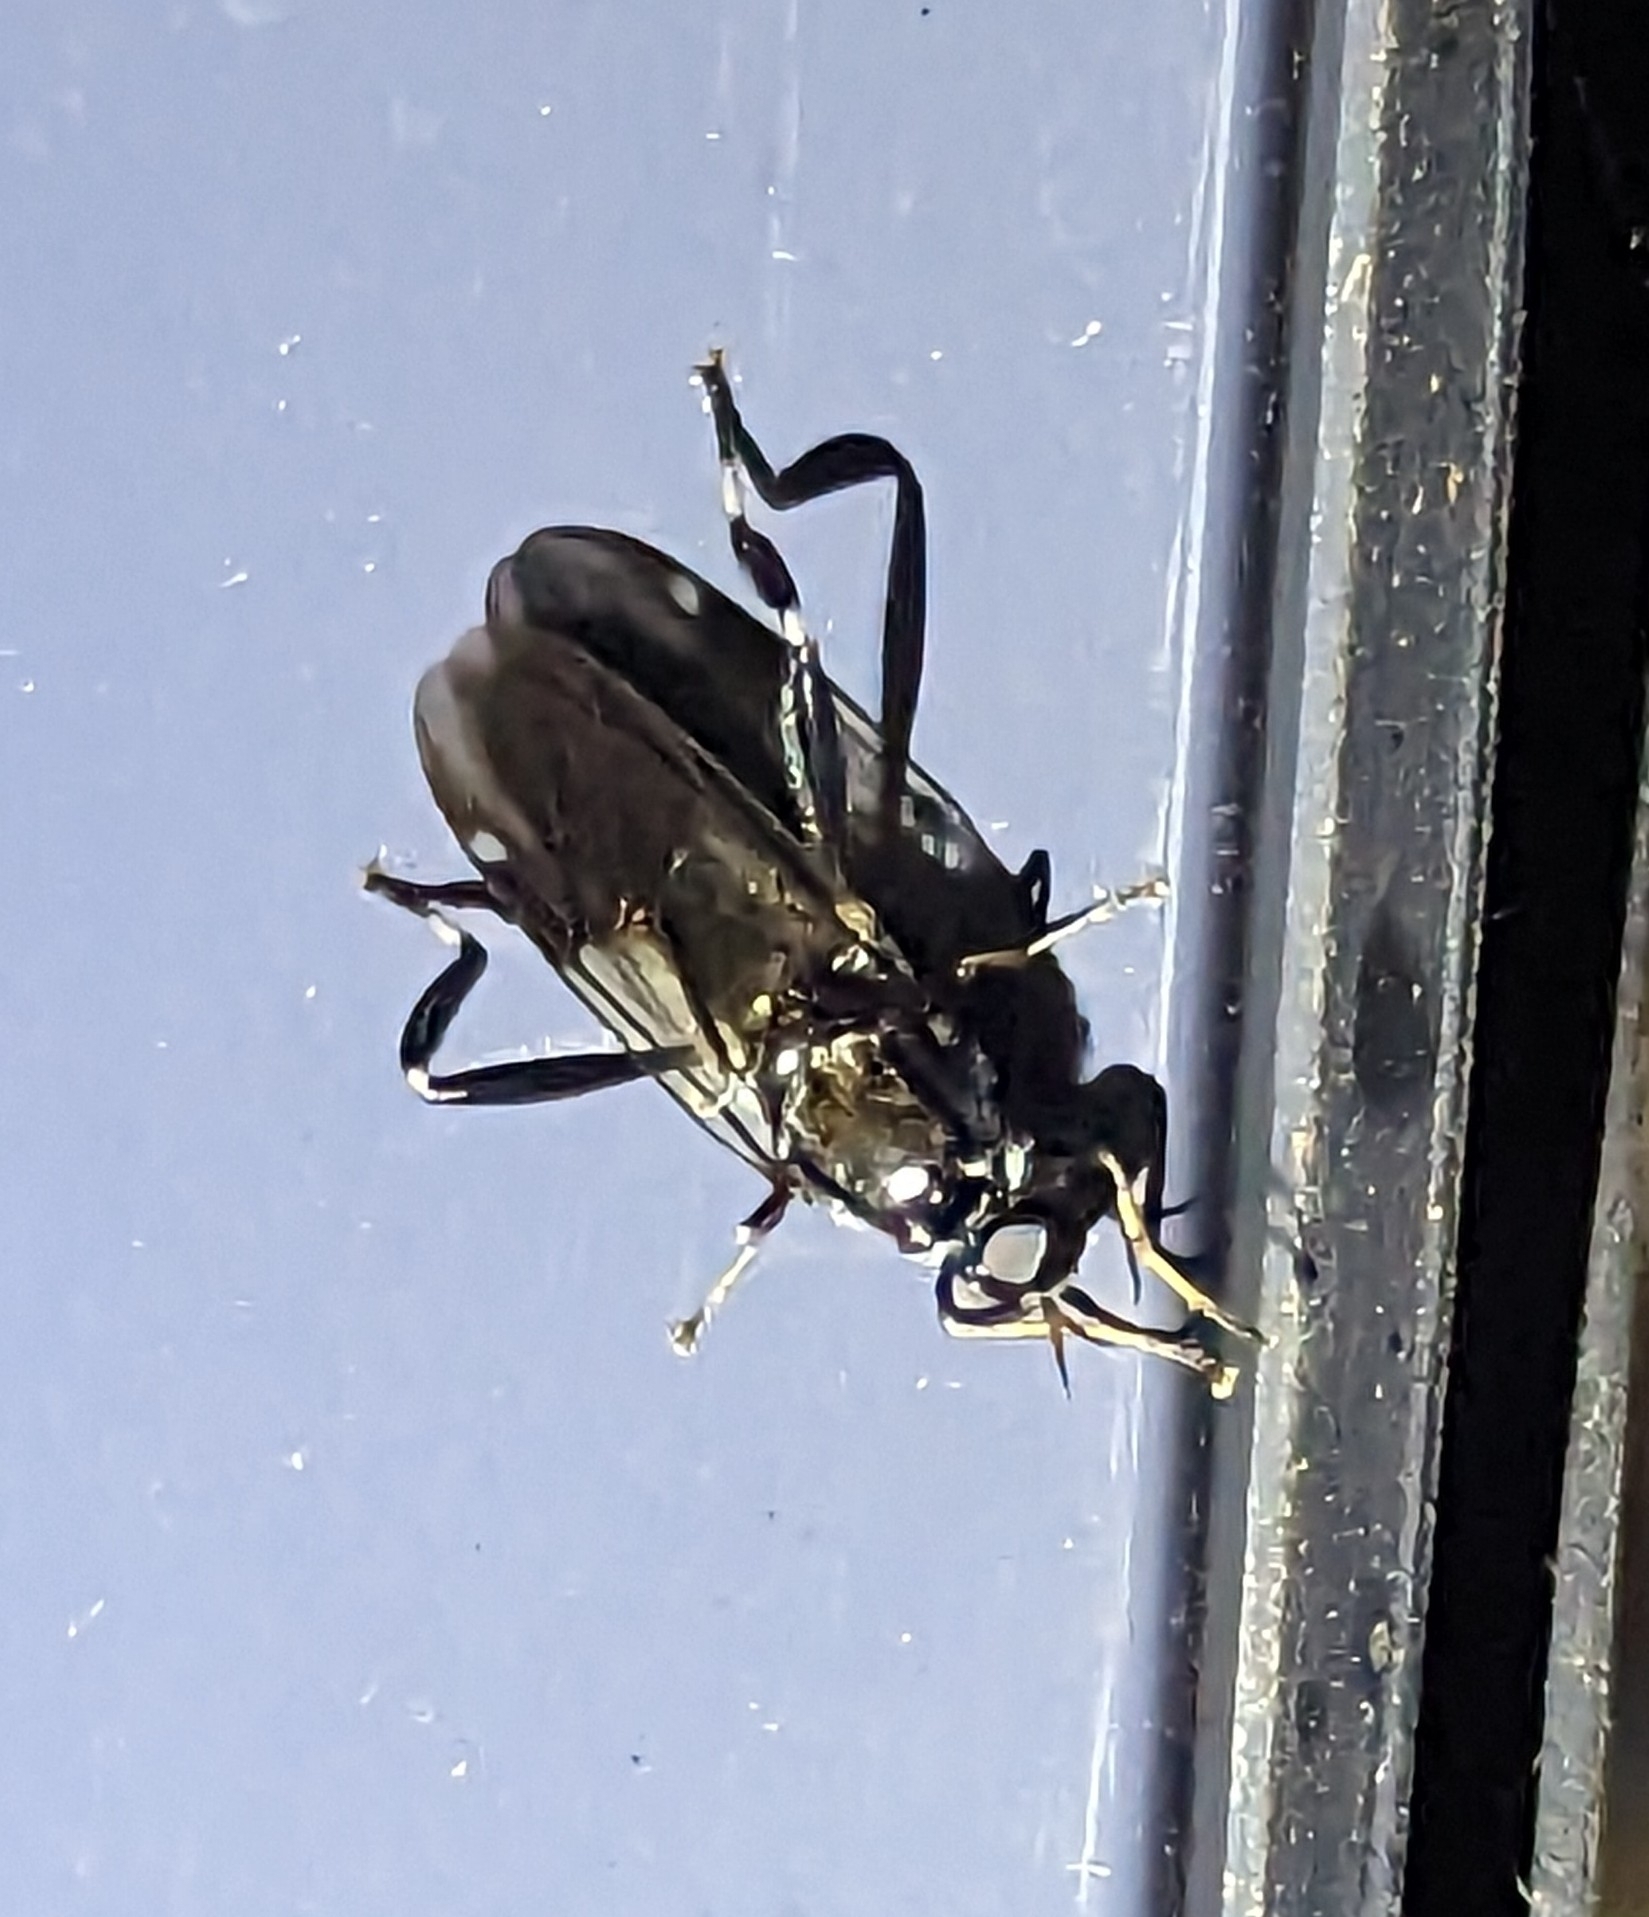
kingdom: Animalia
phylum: Arthropoda
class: Insecta
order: Diptera
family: Stratiomyidae
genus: Exaireta
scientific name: Exaireta spinigera
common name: Blue soldier fly
